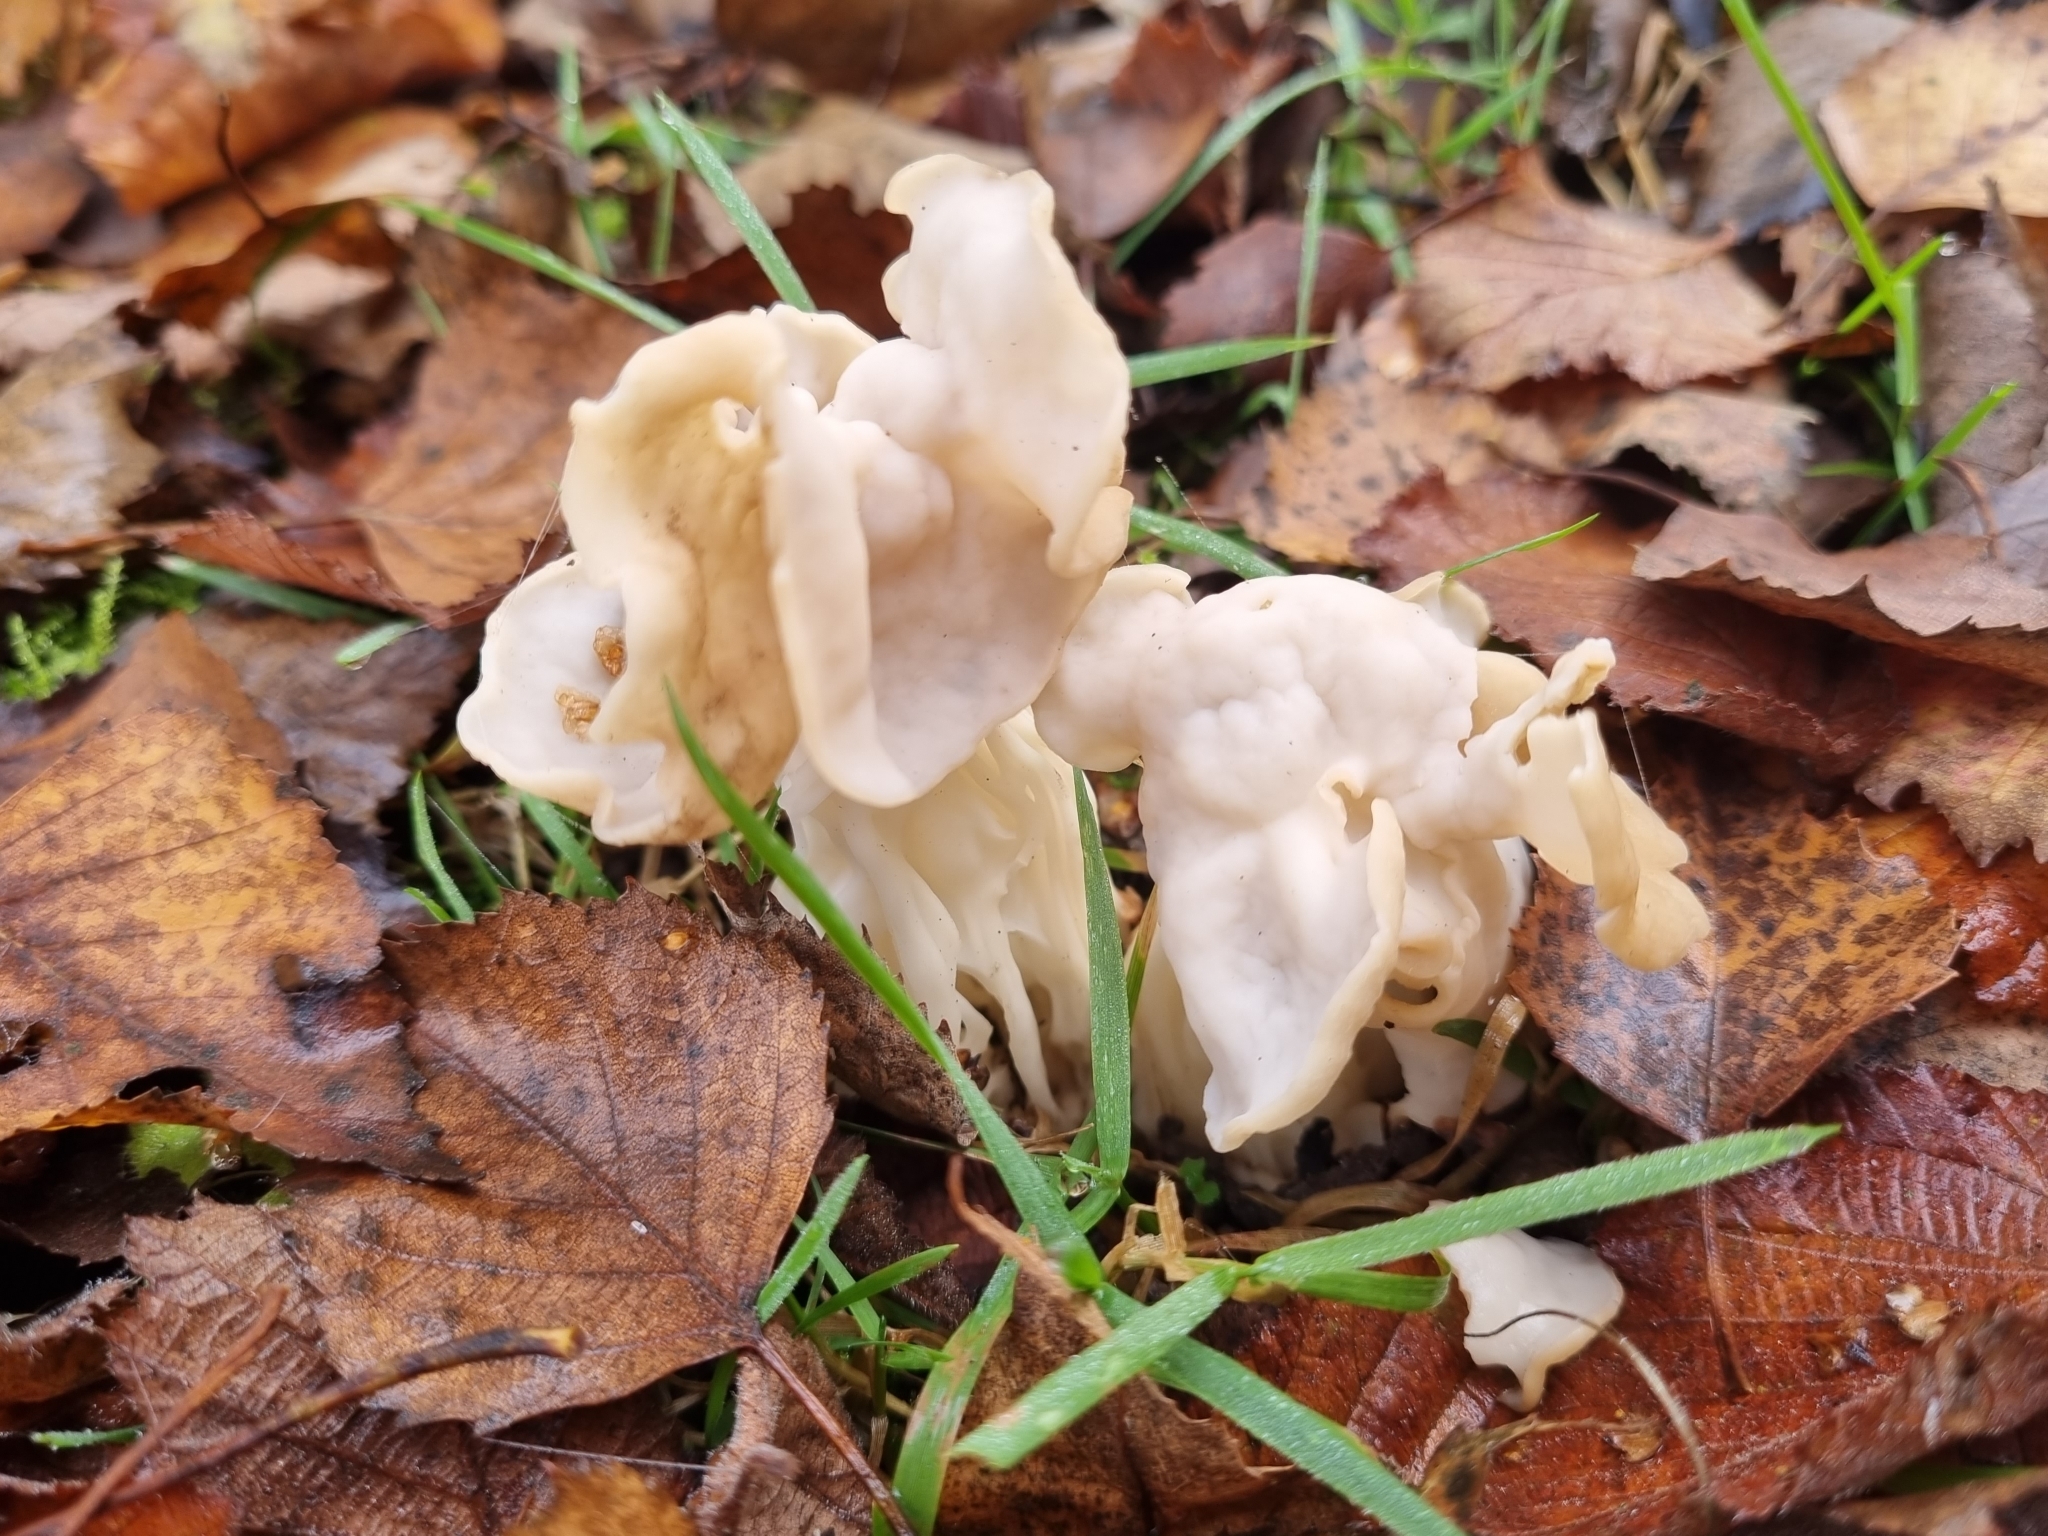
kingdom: Fungi
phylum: Ascomycota
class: Pezizomycetes
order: Pezizales
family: Helvellaceae
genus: Helvella
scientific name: Helvella crispa
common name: White saddle
